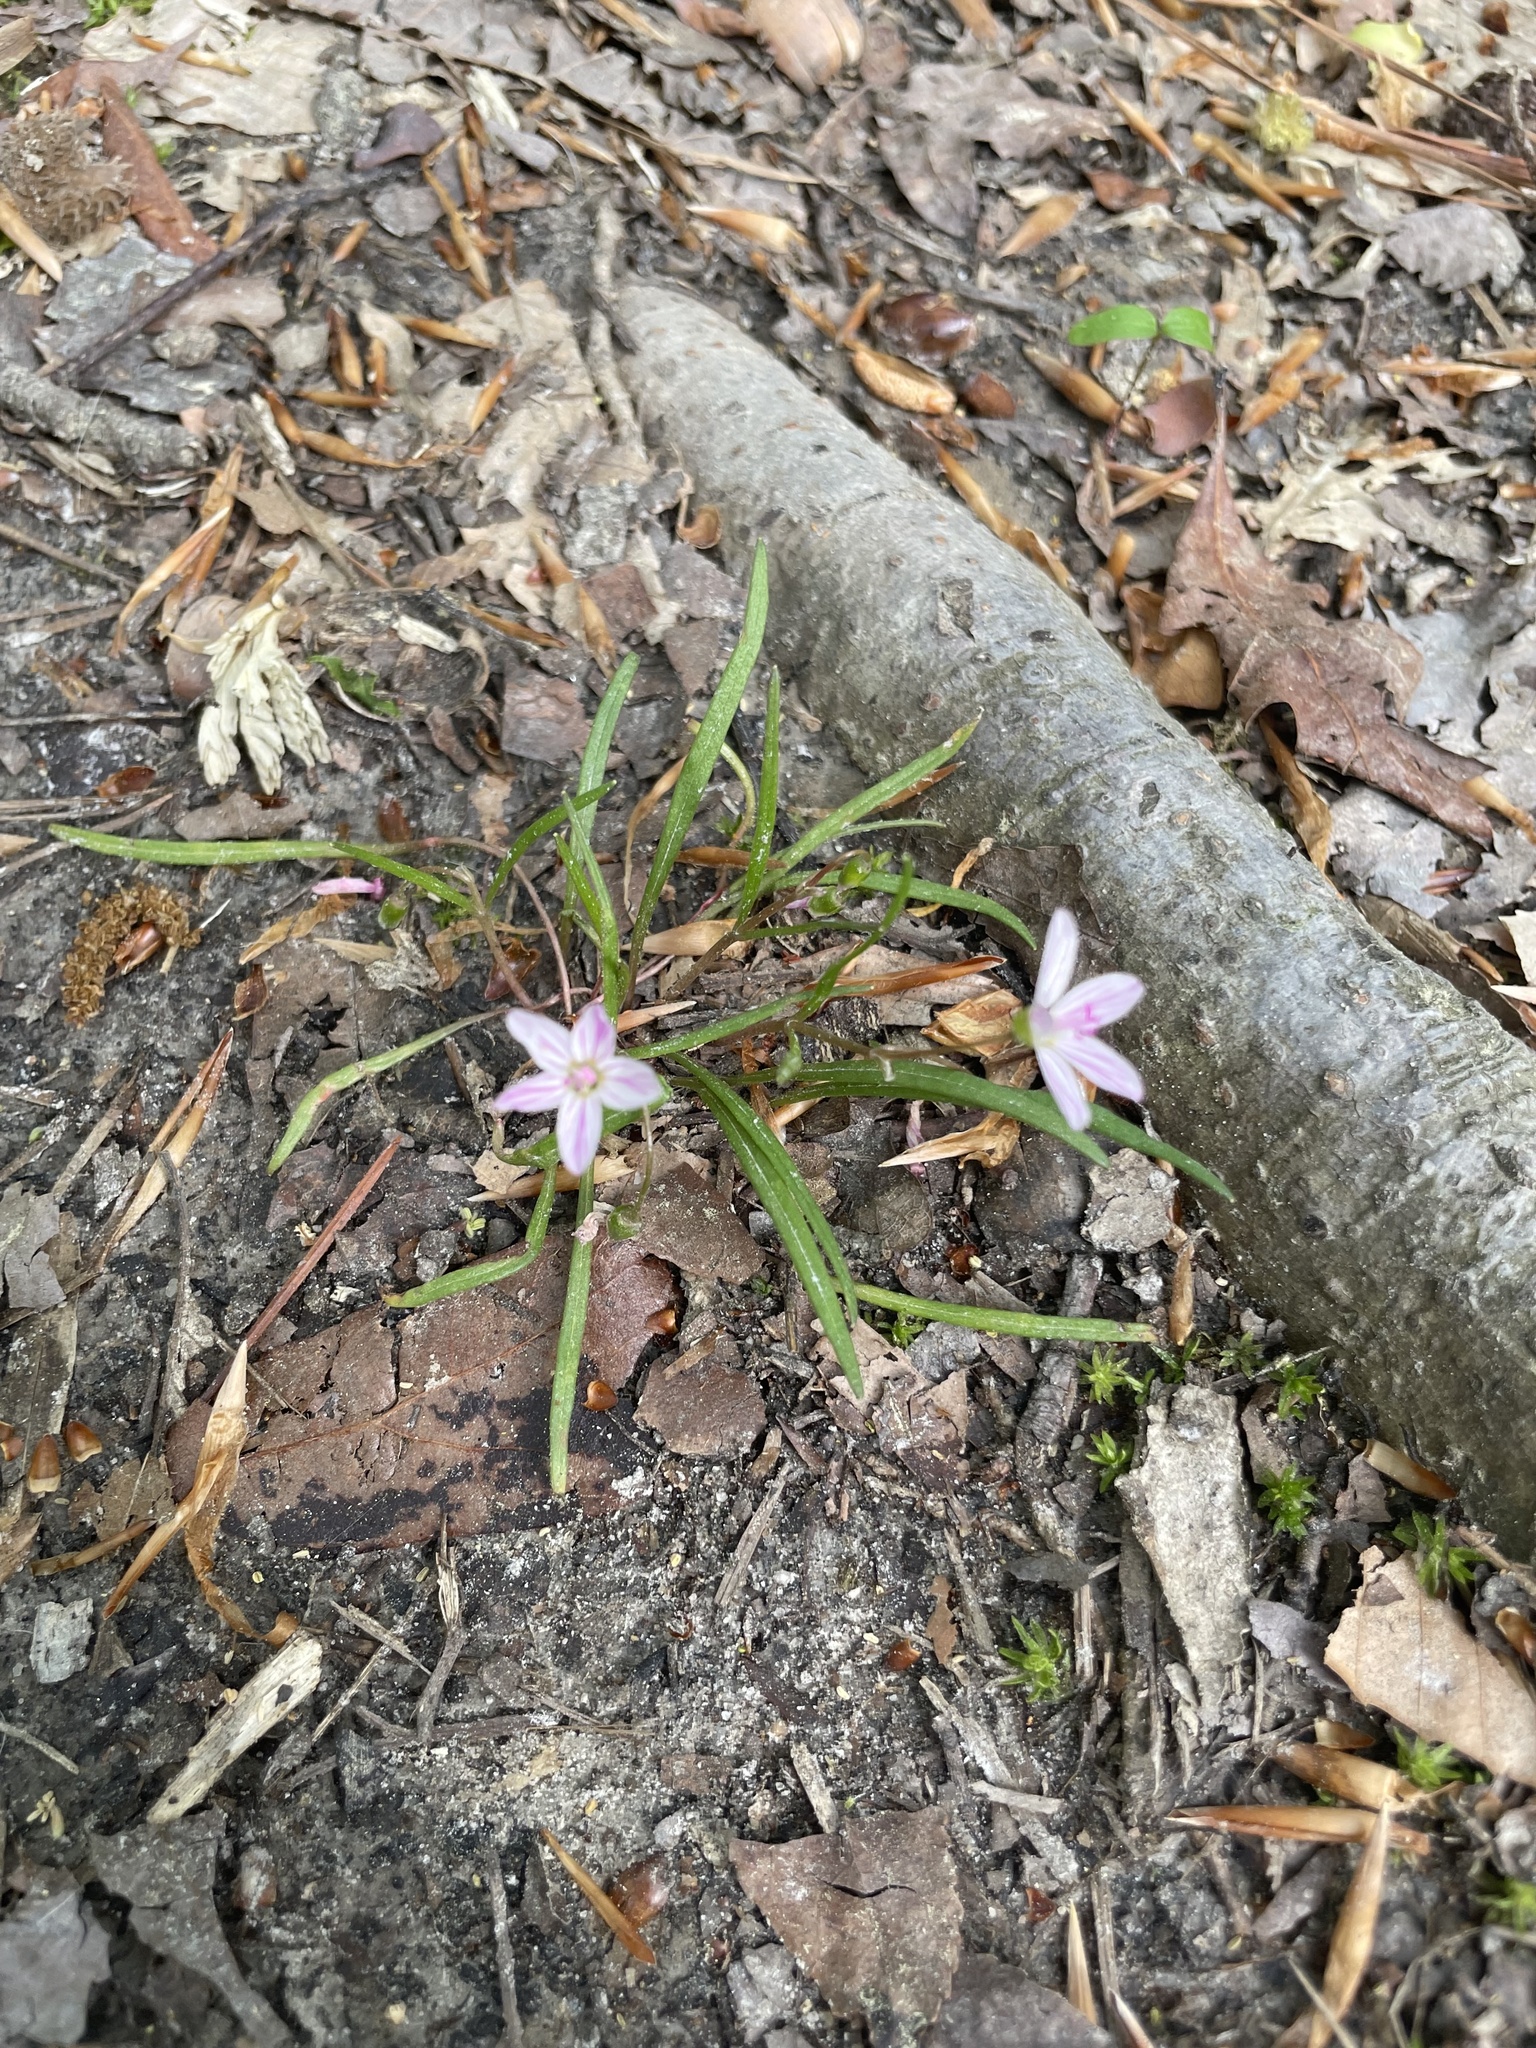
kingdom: Plantae
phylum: Tracheophyta
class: Magnoliopsida
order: Caryophyllales
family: Montiaceae
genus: Claytonia
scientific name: Claytonia virginica
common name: Virginia springbeauty
